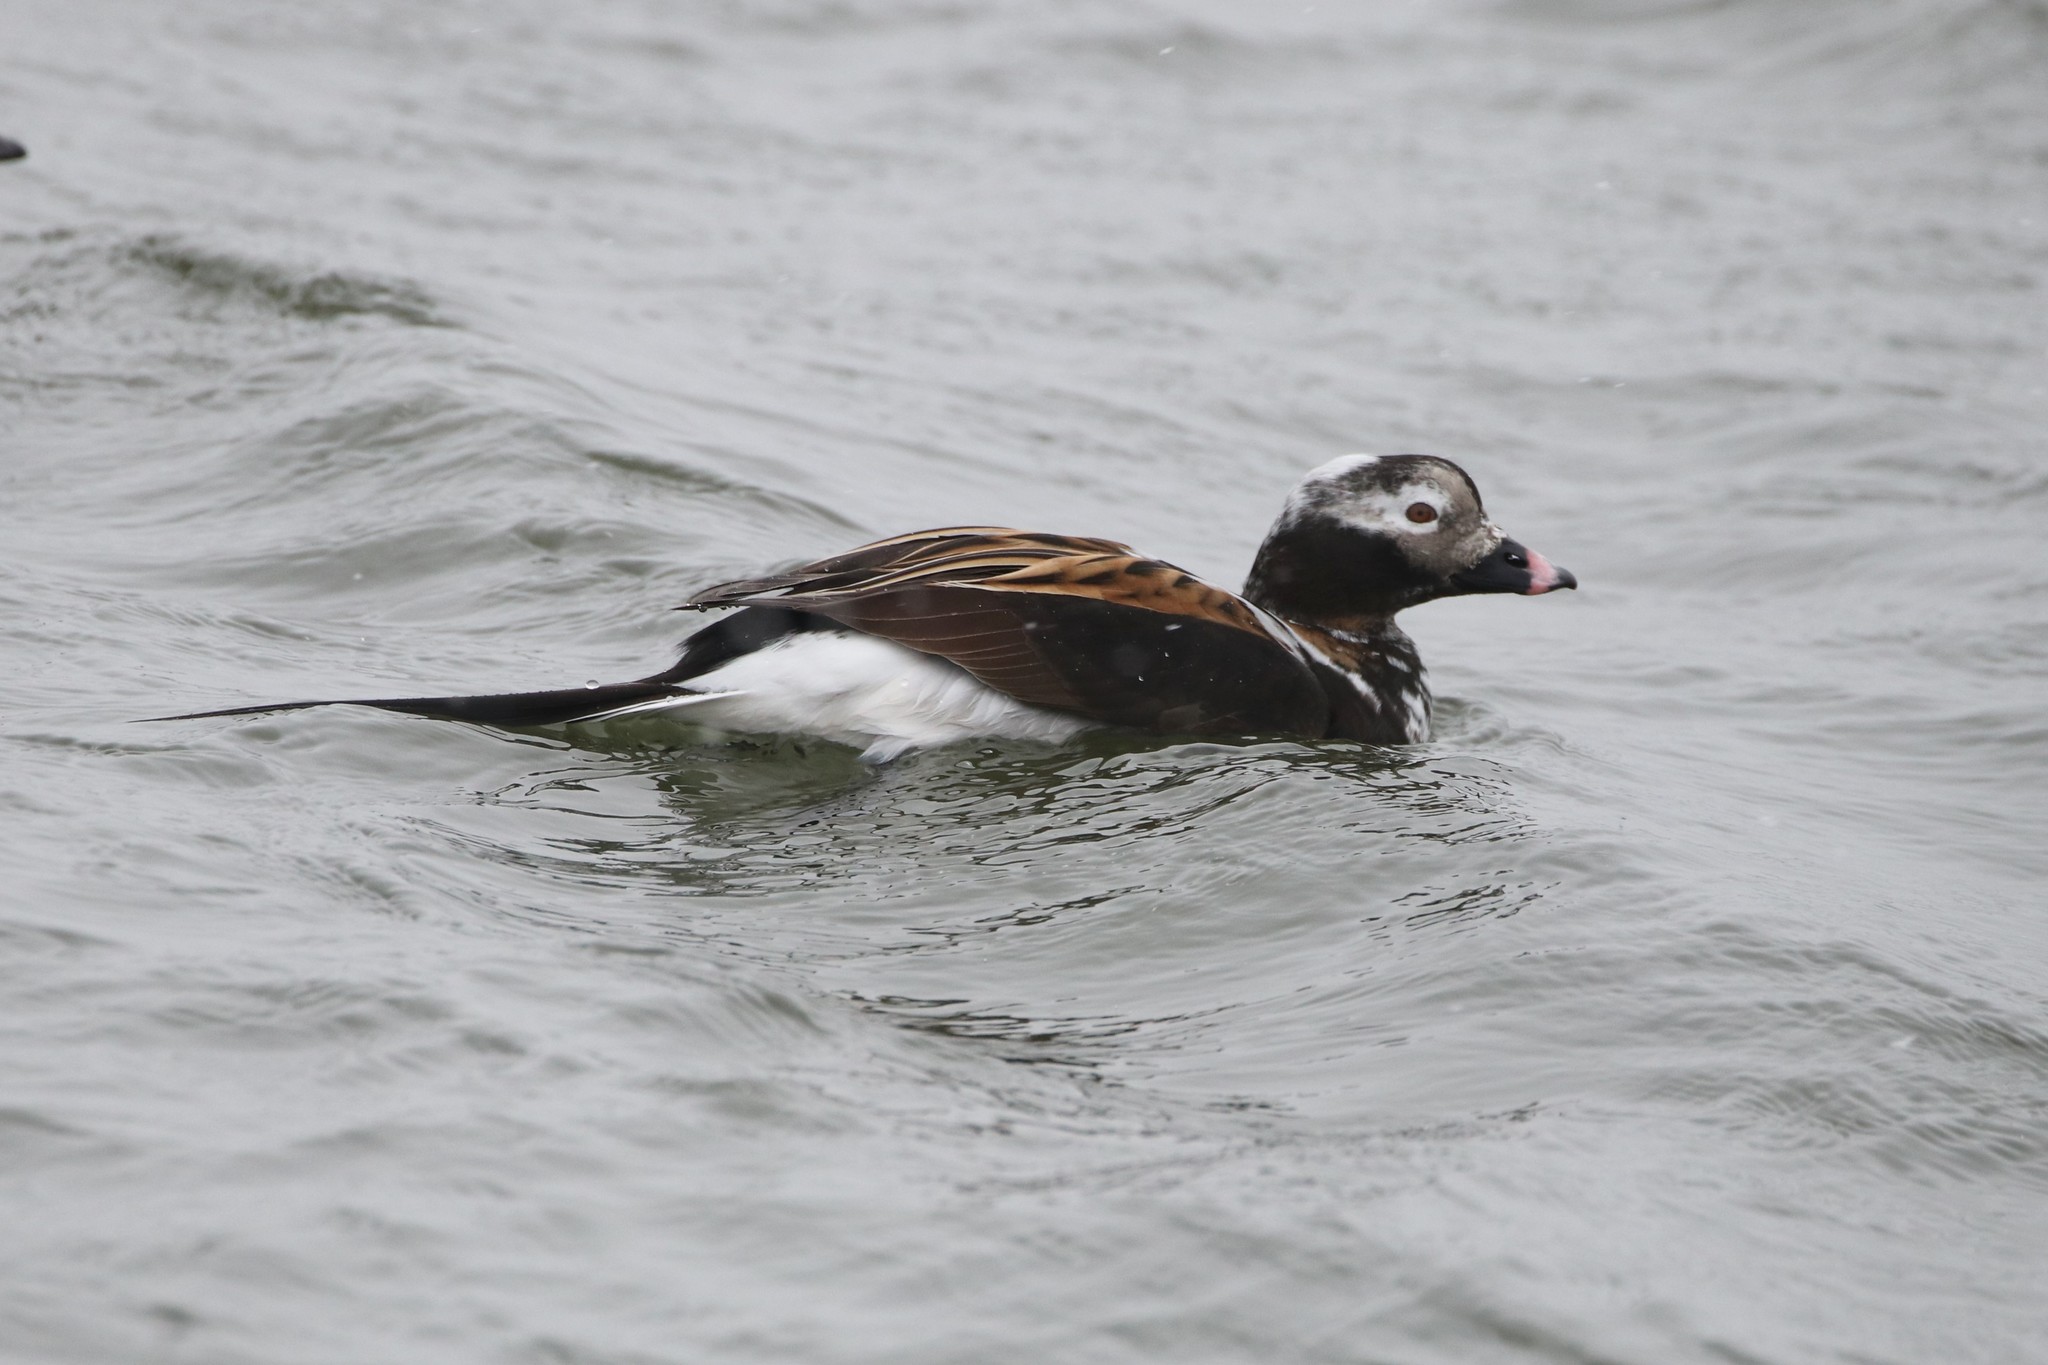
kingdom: Animalia
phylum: Chordata
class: Aves
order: Anseriformes
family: Anatidae
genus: Clangula
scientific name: Clangula hyemalis
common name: Long-tailed duck
